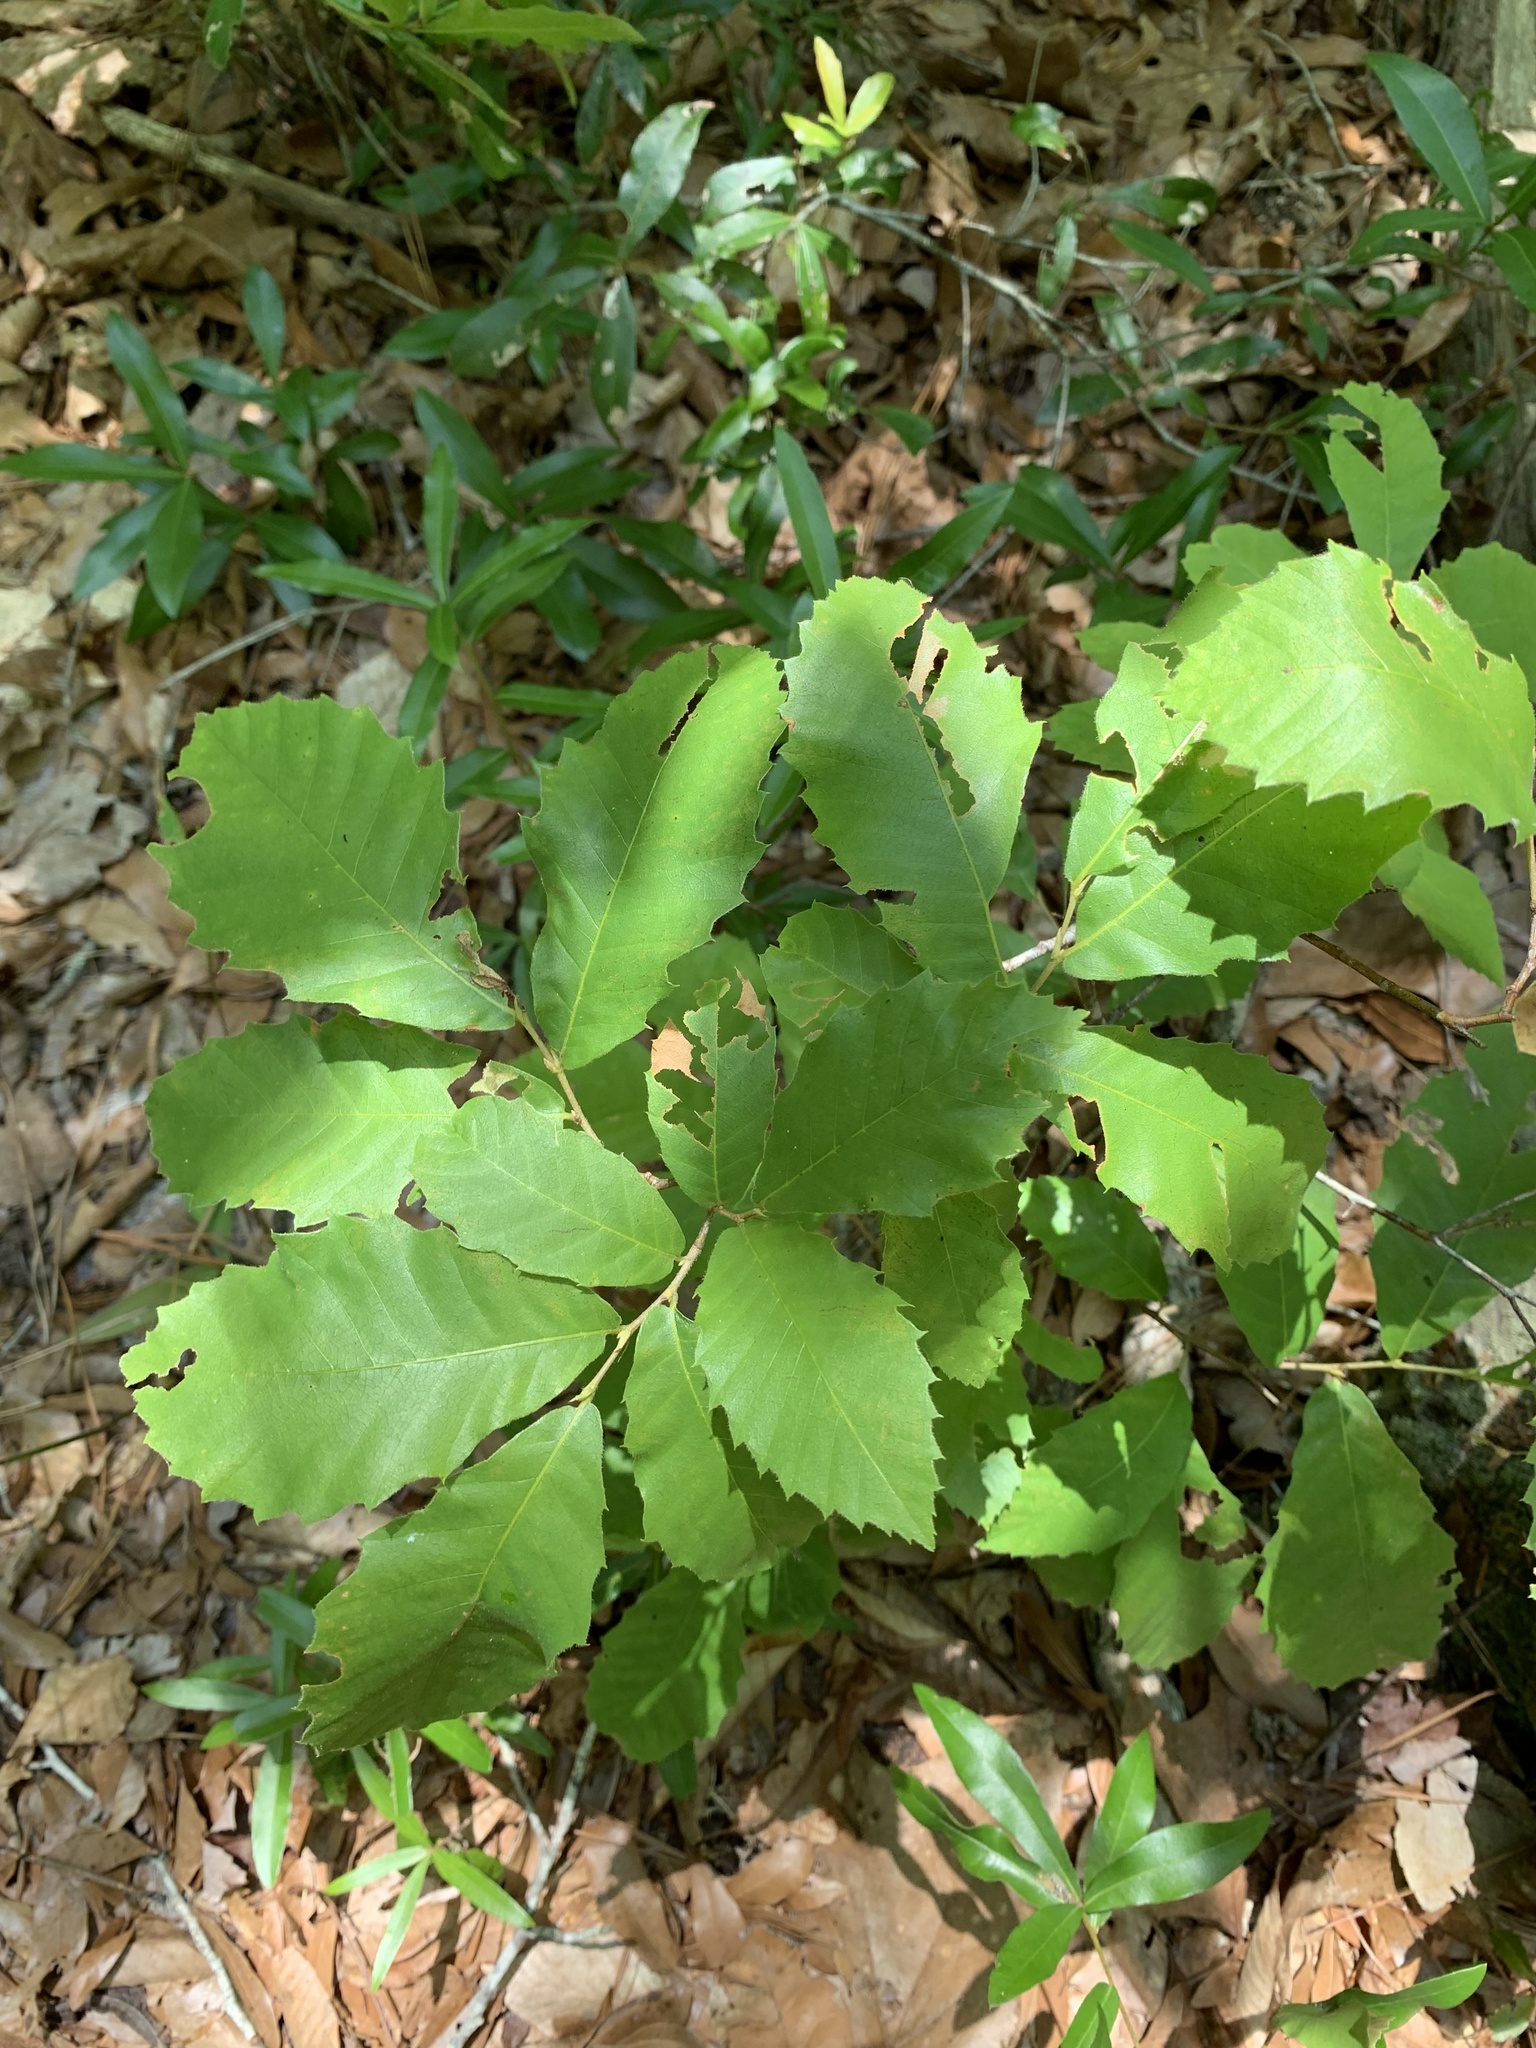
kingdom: Plantae
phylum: Tracheophyta
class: Magnoliopsida
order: Fagales
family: Fagaceae
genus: Castanea
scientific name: Castanea pumila
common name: Chinkapin
